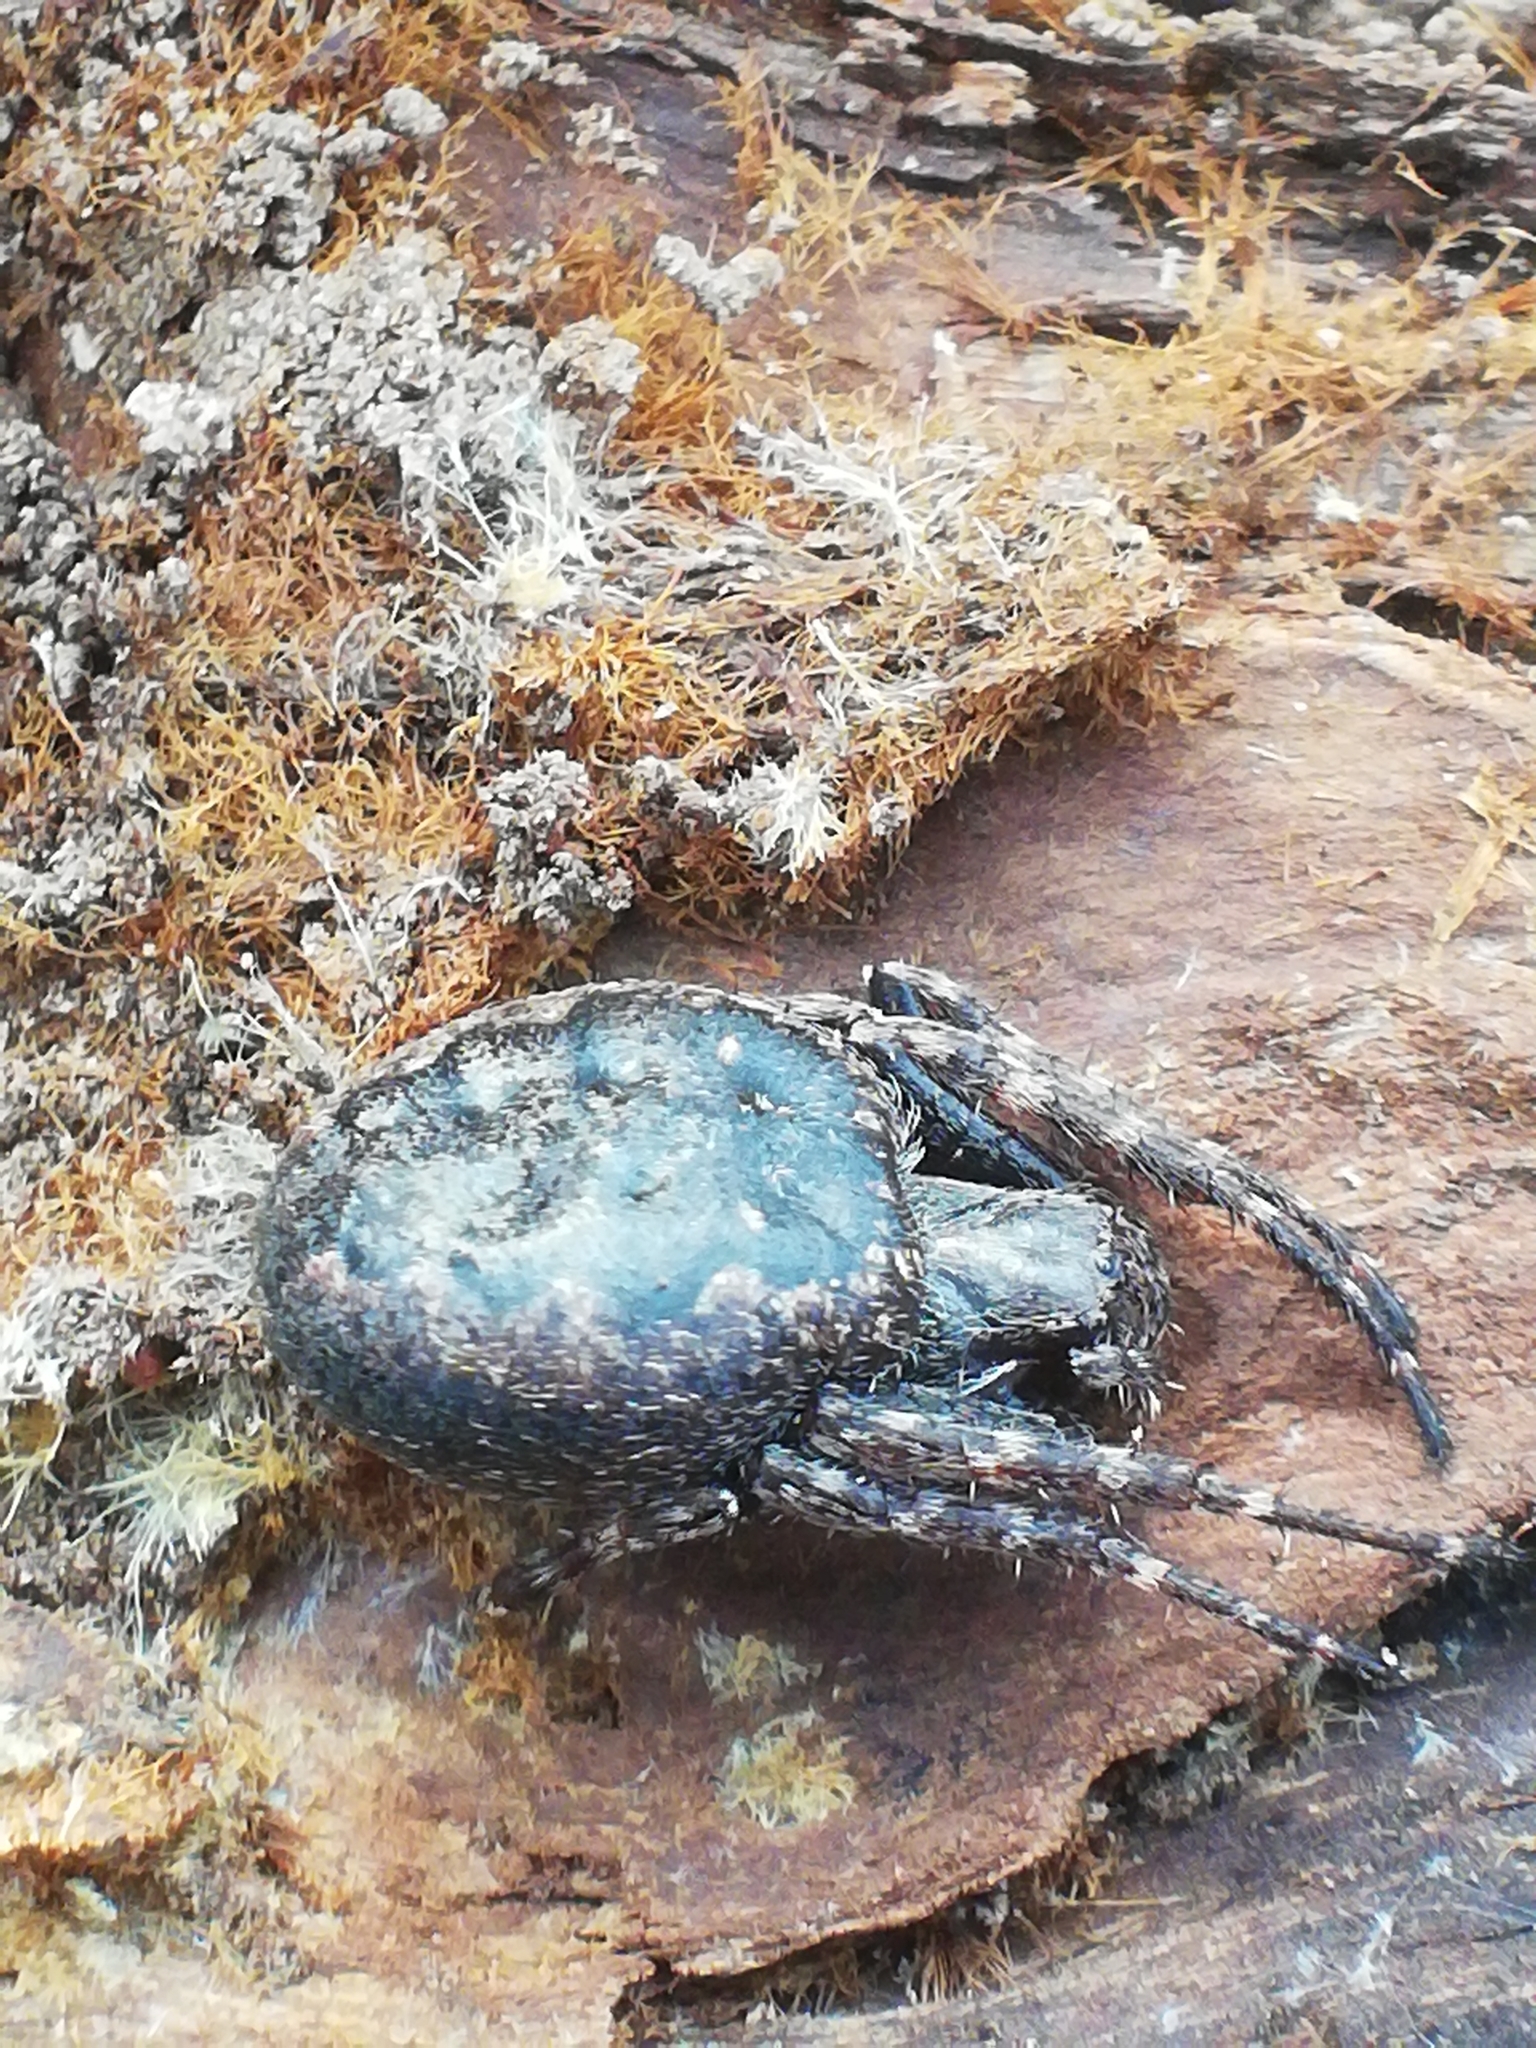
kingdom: Animalia
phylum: Arthropoda
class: Arachnida
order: Araneae
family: Araneidae
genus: Nuctenea
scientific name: Nuctenea umbratica
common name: Toad spider
